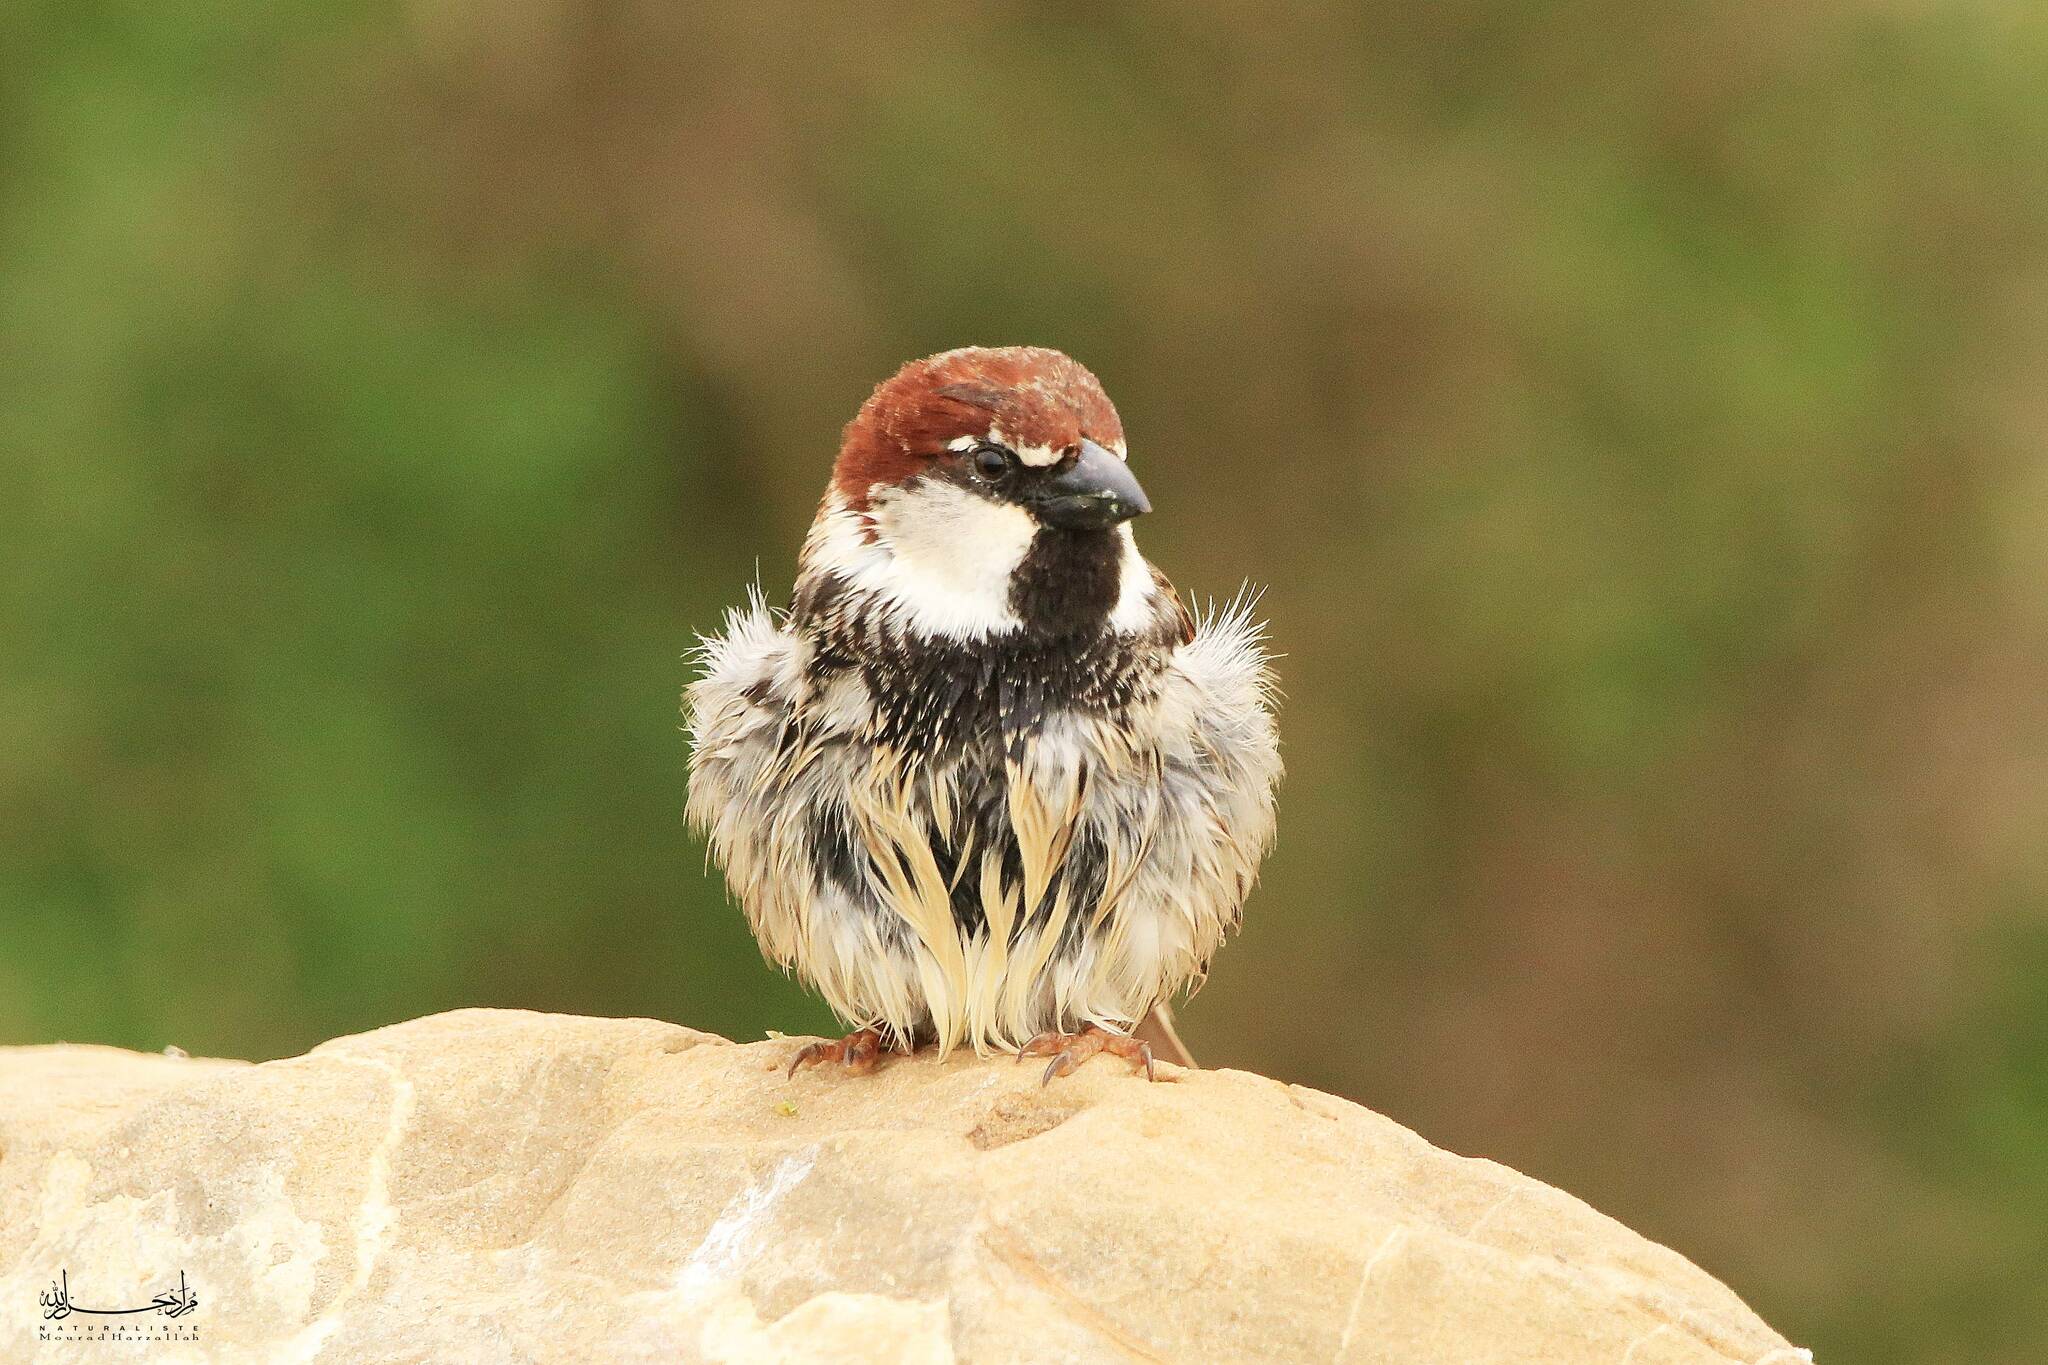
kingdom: Animalia
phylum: Chordata
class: Aves
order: Passeriformes
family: Passeridae
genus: Passer
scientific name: Passer hispaniolensis
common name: Spanish sparrow
